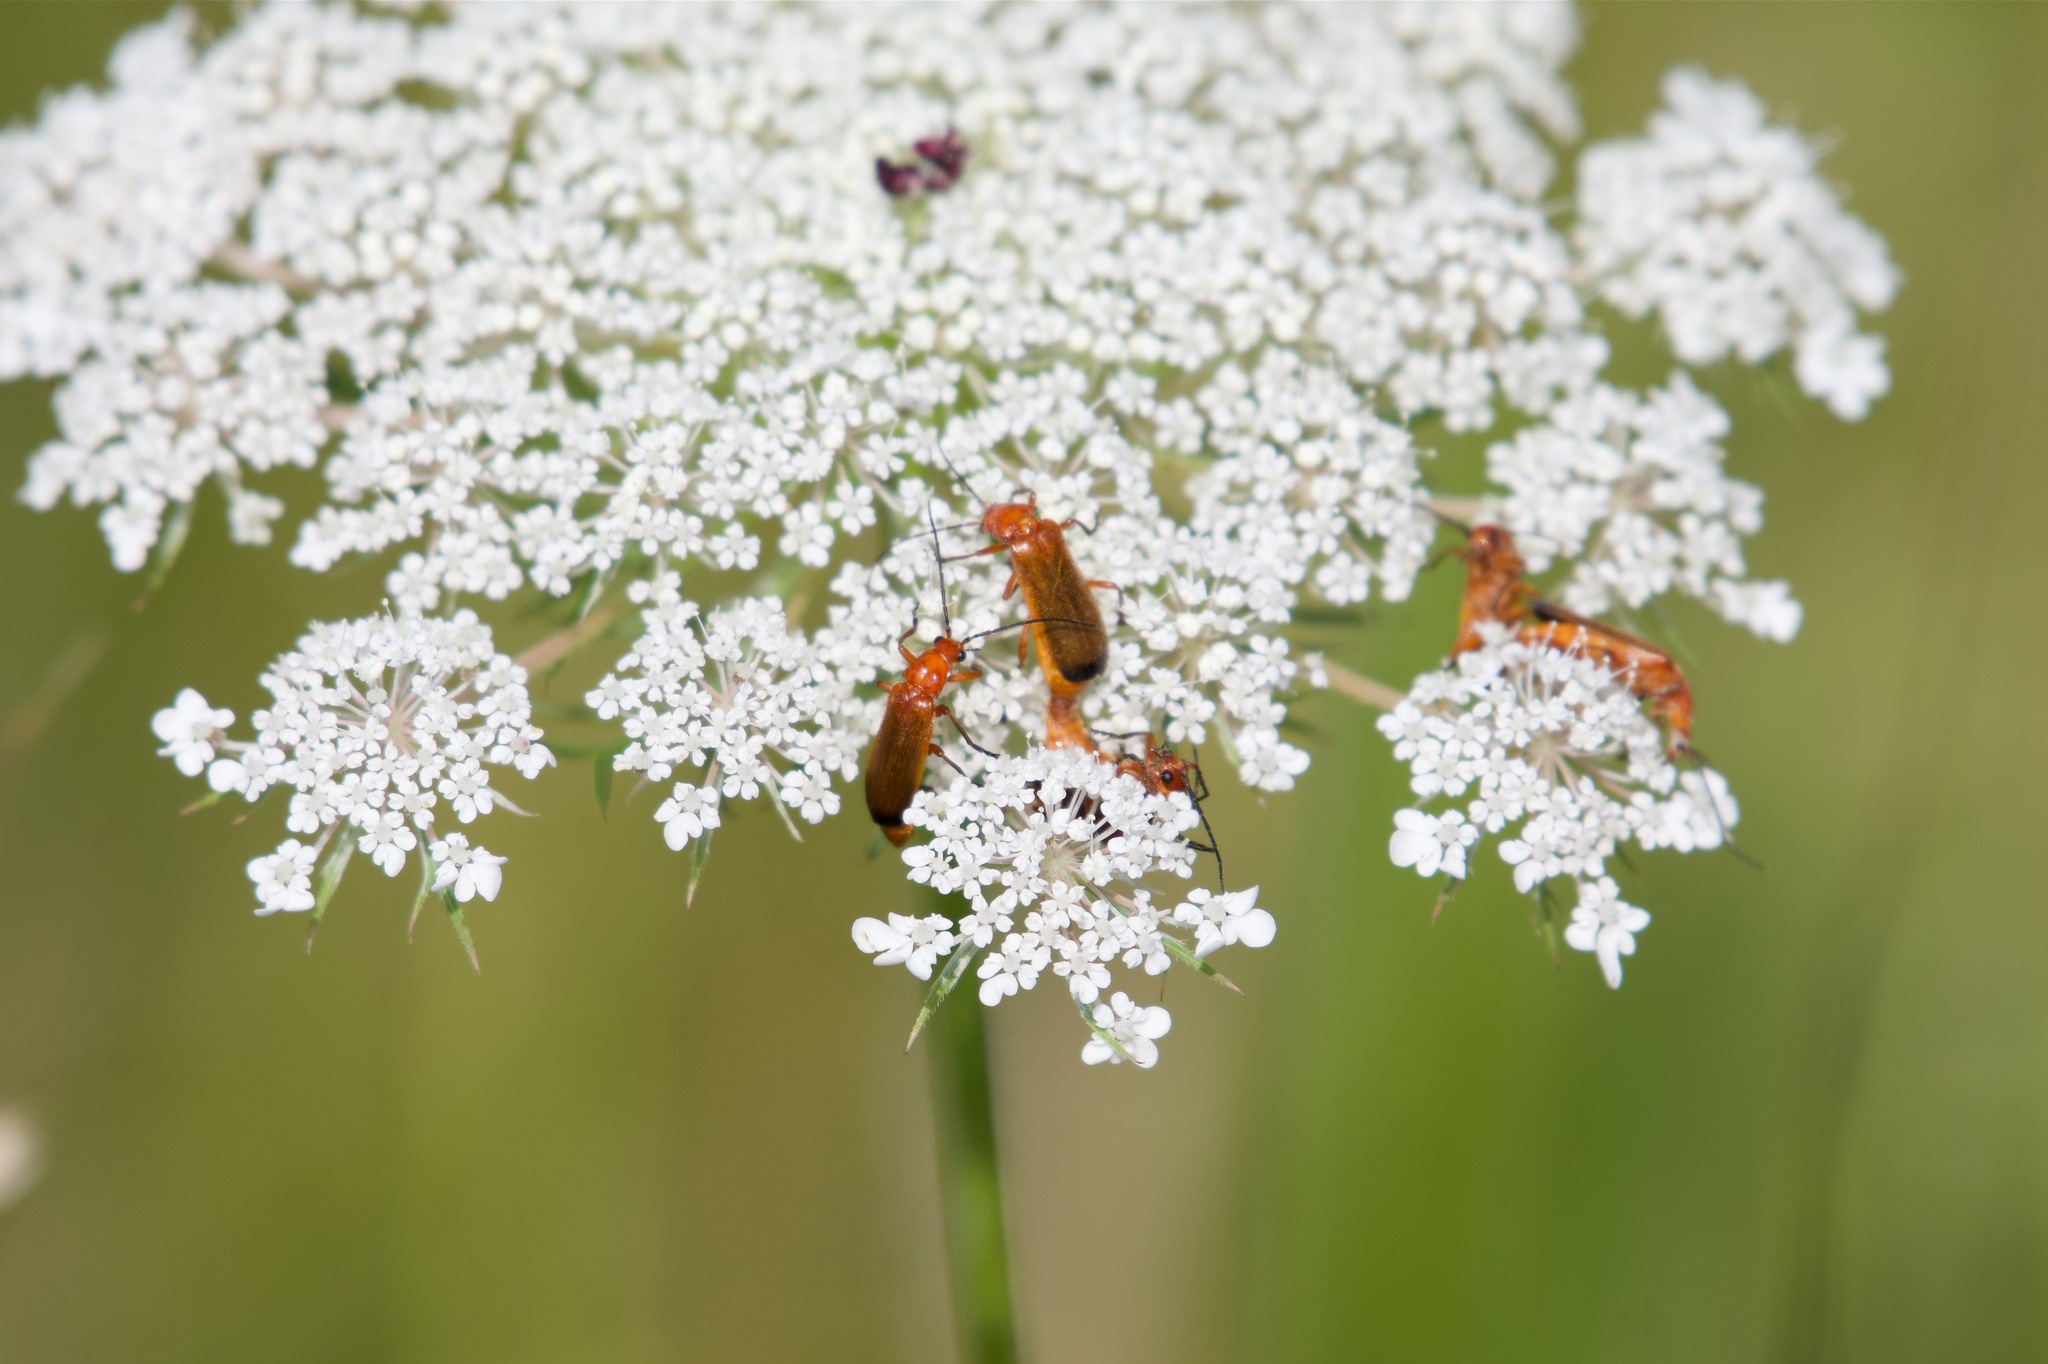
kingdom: Animalia
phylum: Arthropoda
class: Insecta
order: Coleoptera
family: Cantharidae
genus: Rhagonycha
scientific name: Rhagonycha fulva
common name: Common red soldier beetle
